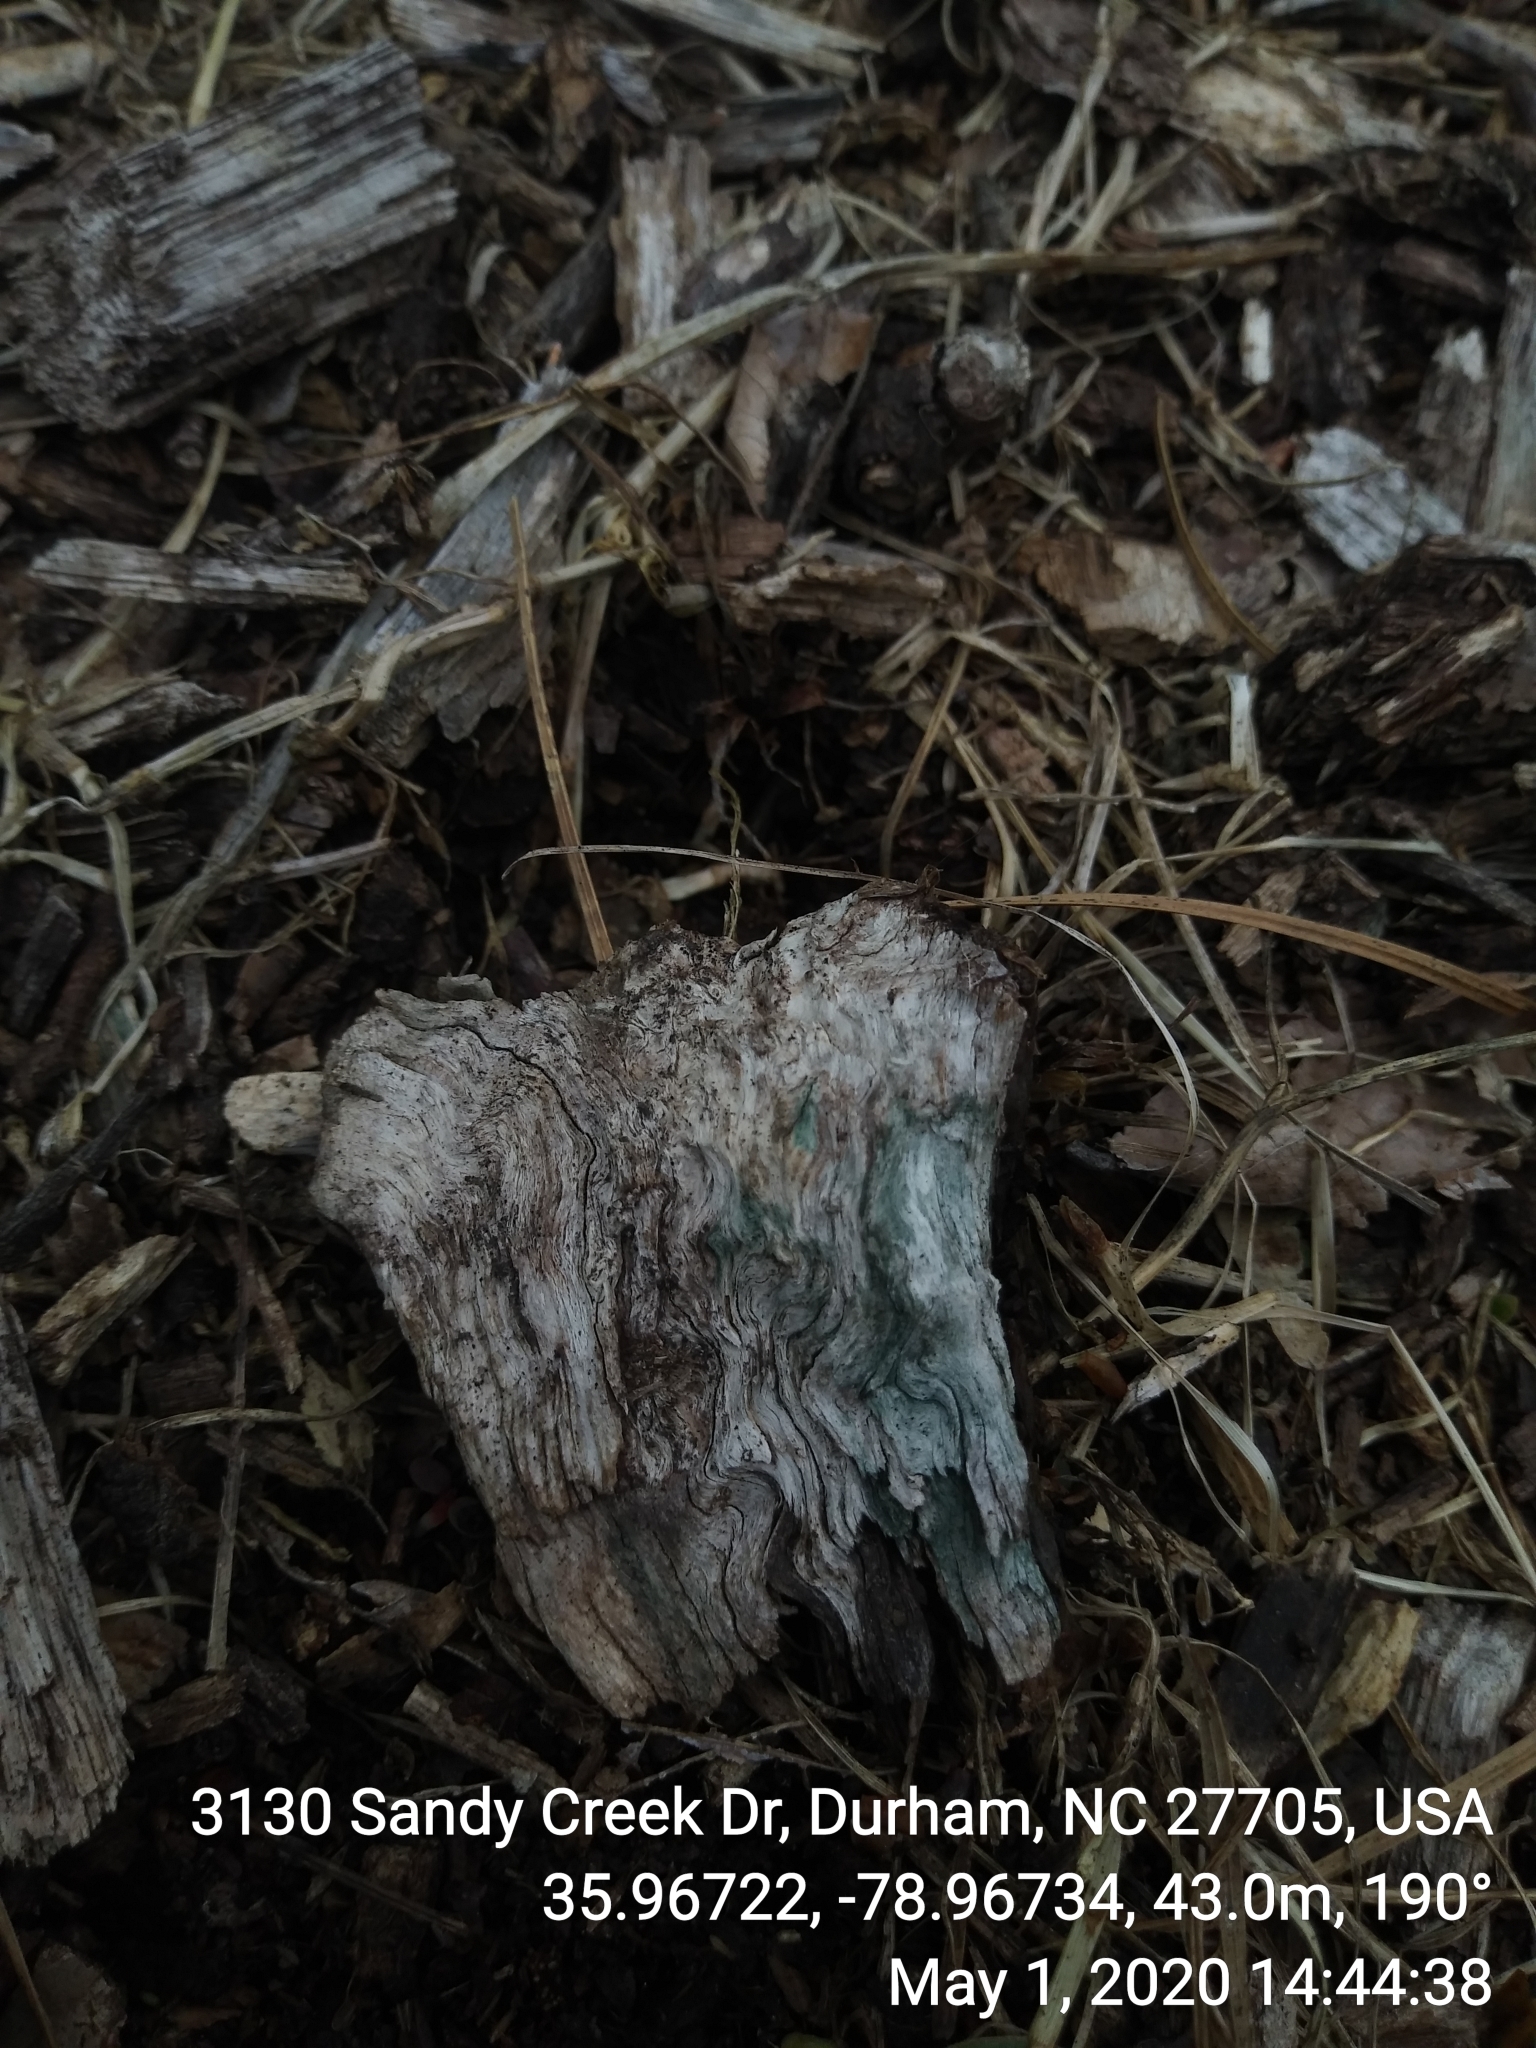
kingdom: Fungi
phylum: Ascomycota
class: Leotiomycetes
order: Helotiales
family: Chlorociboriaceae
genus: Chlorociboria
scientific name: Chlorociboria
